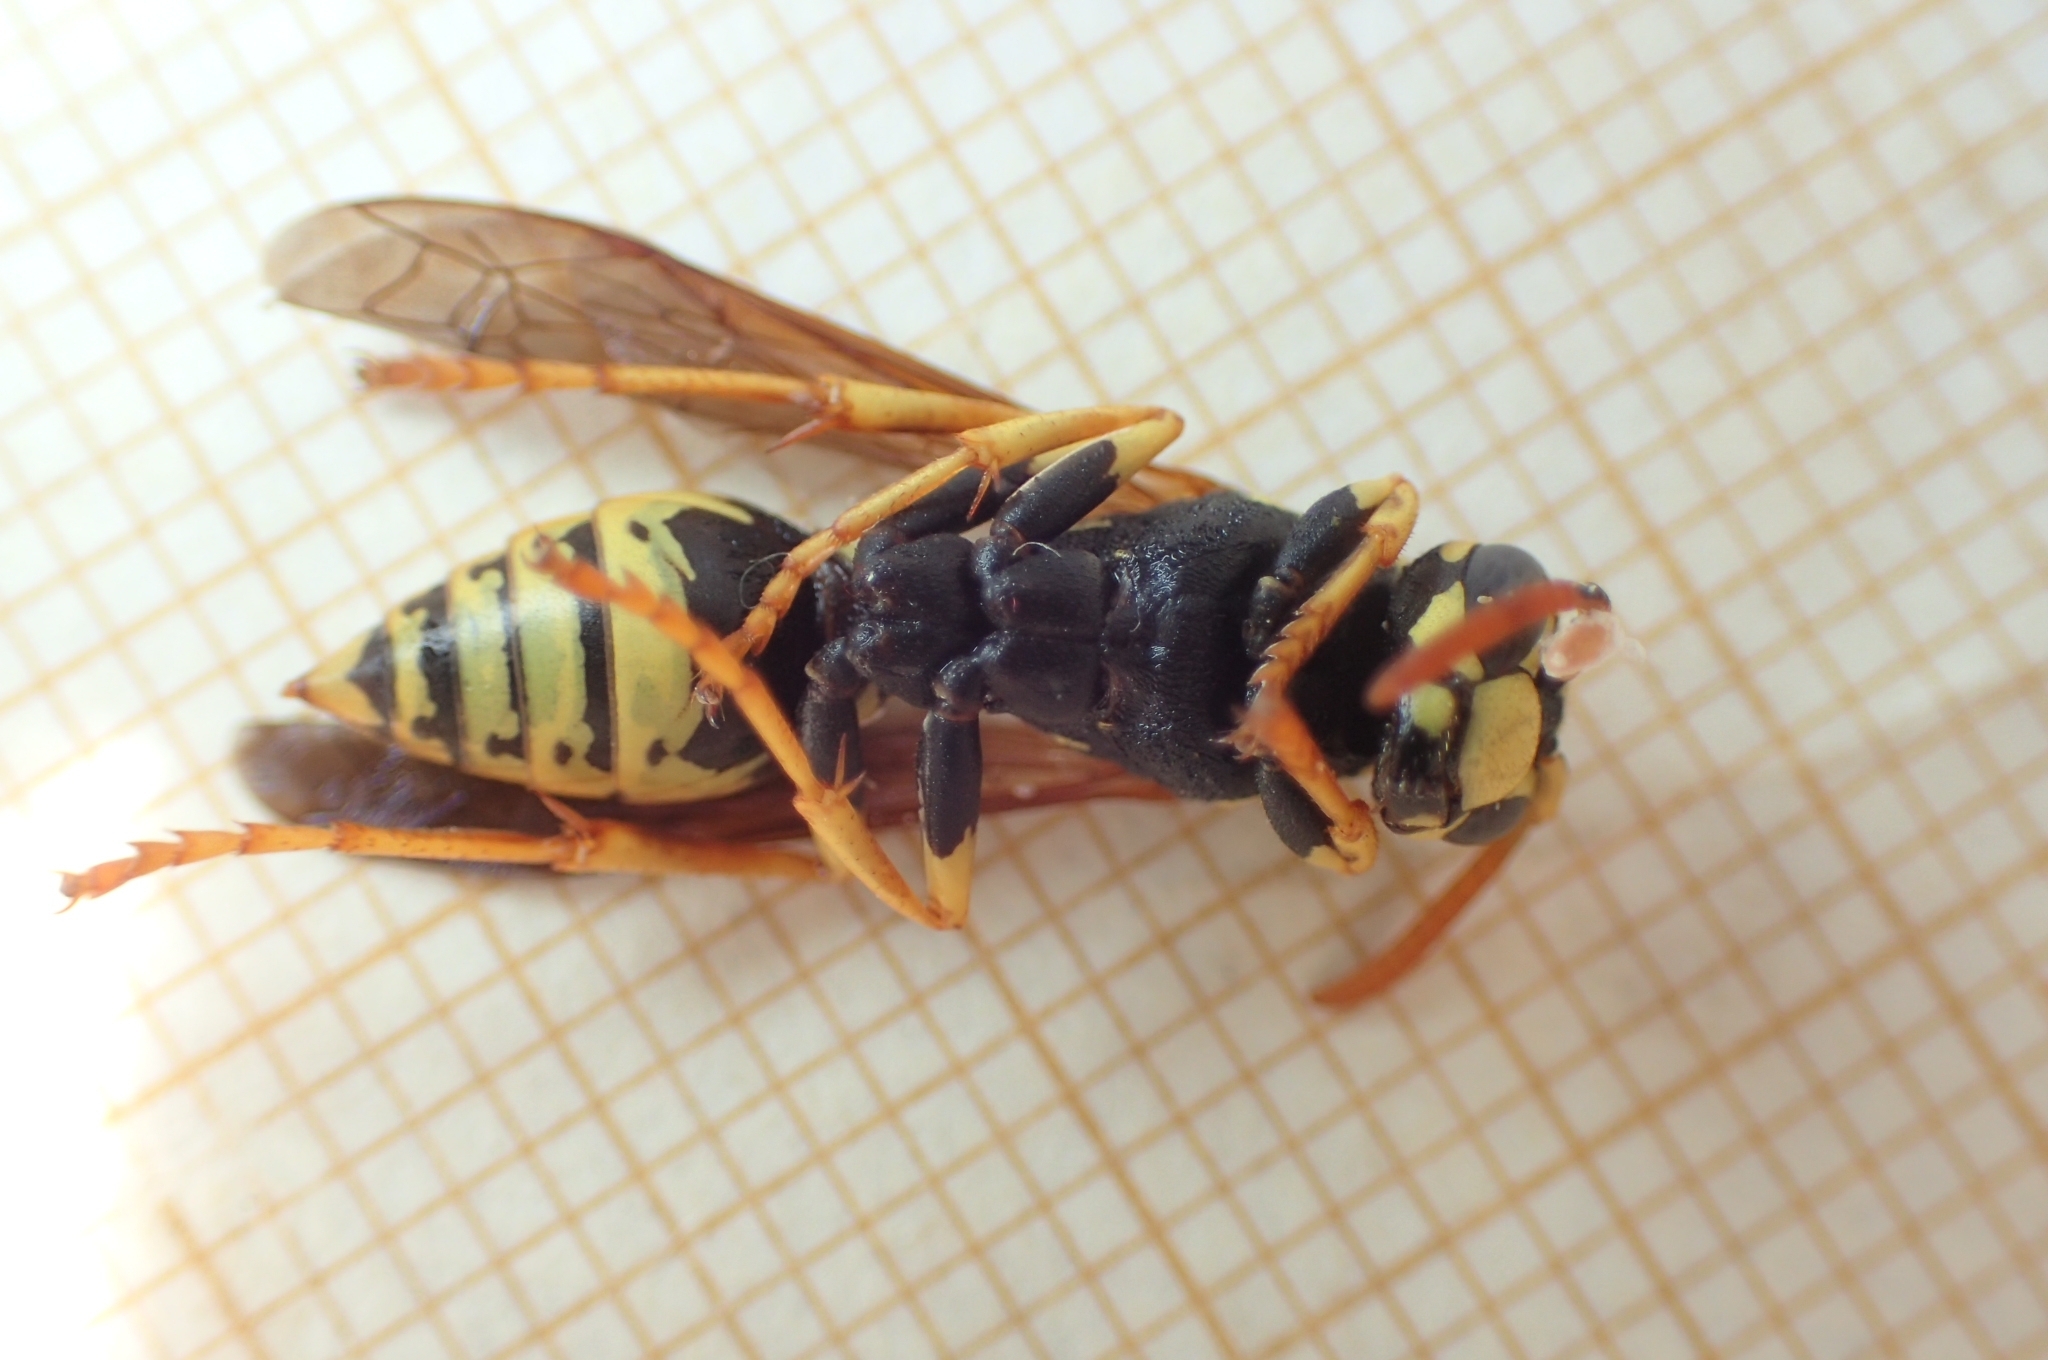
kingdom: Animalia
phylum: Arthropoda
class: Insecta
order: Hymenoptera
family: Eumenidae
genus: Polistes
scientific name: Polistes dominula
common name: Paper wasp
